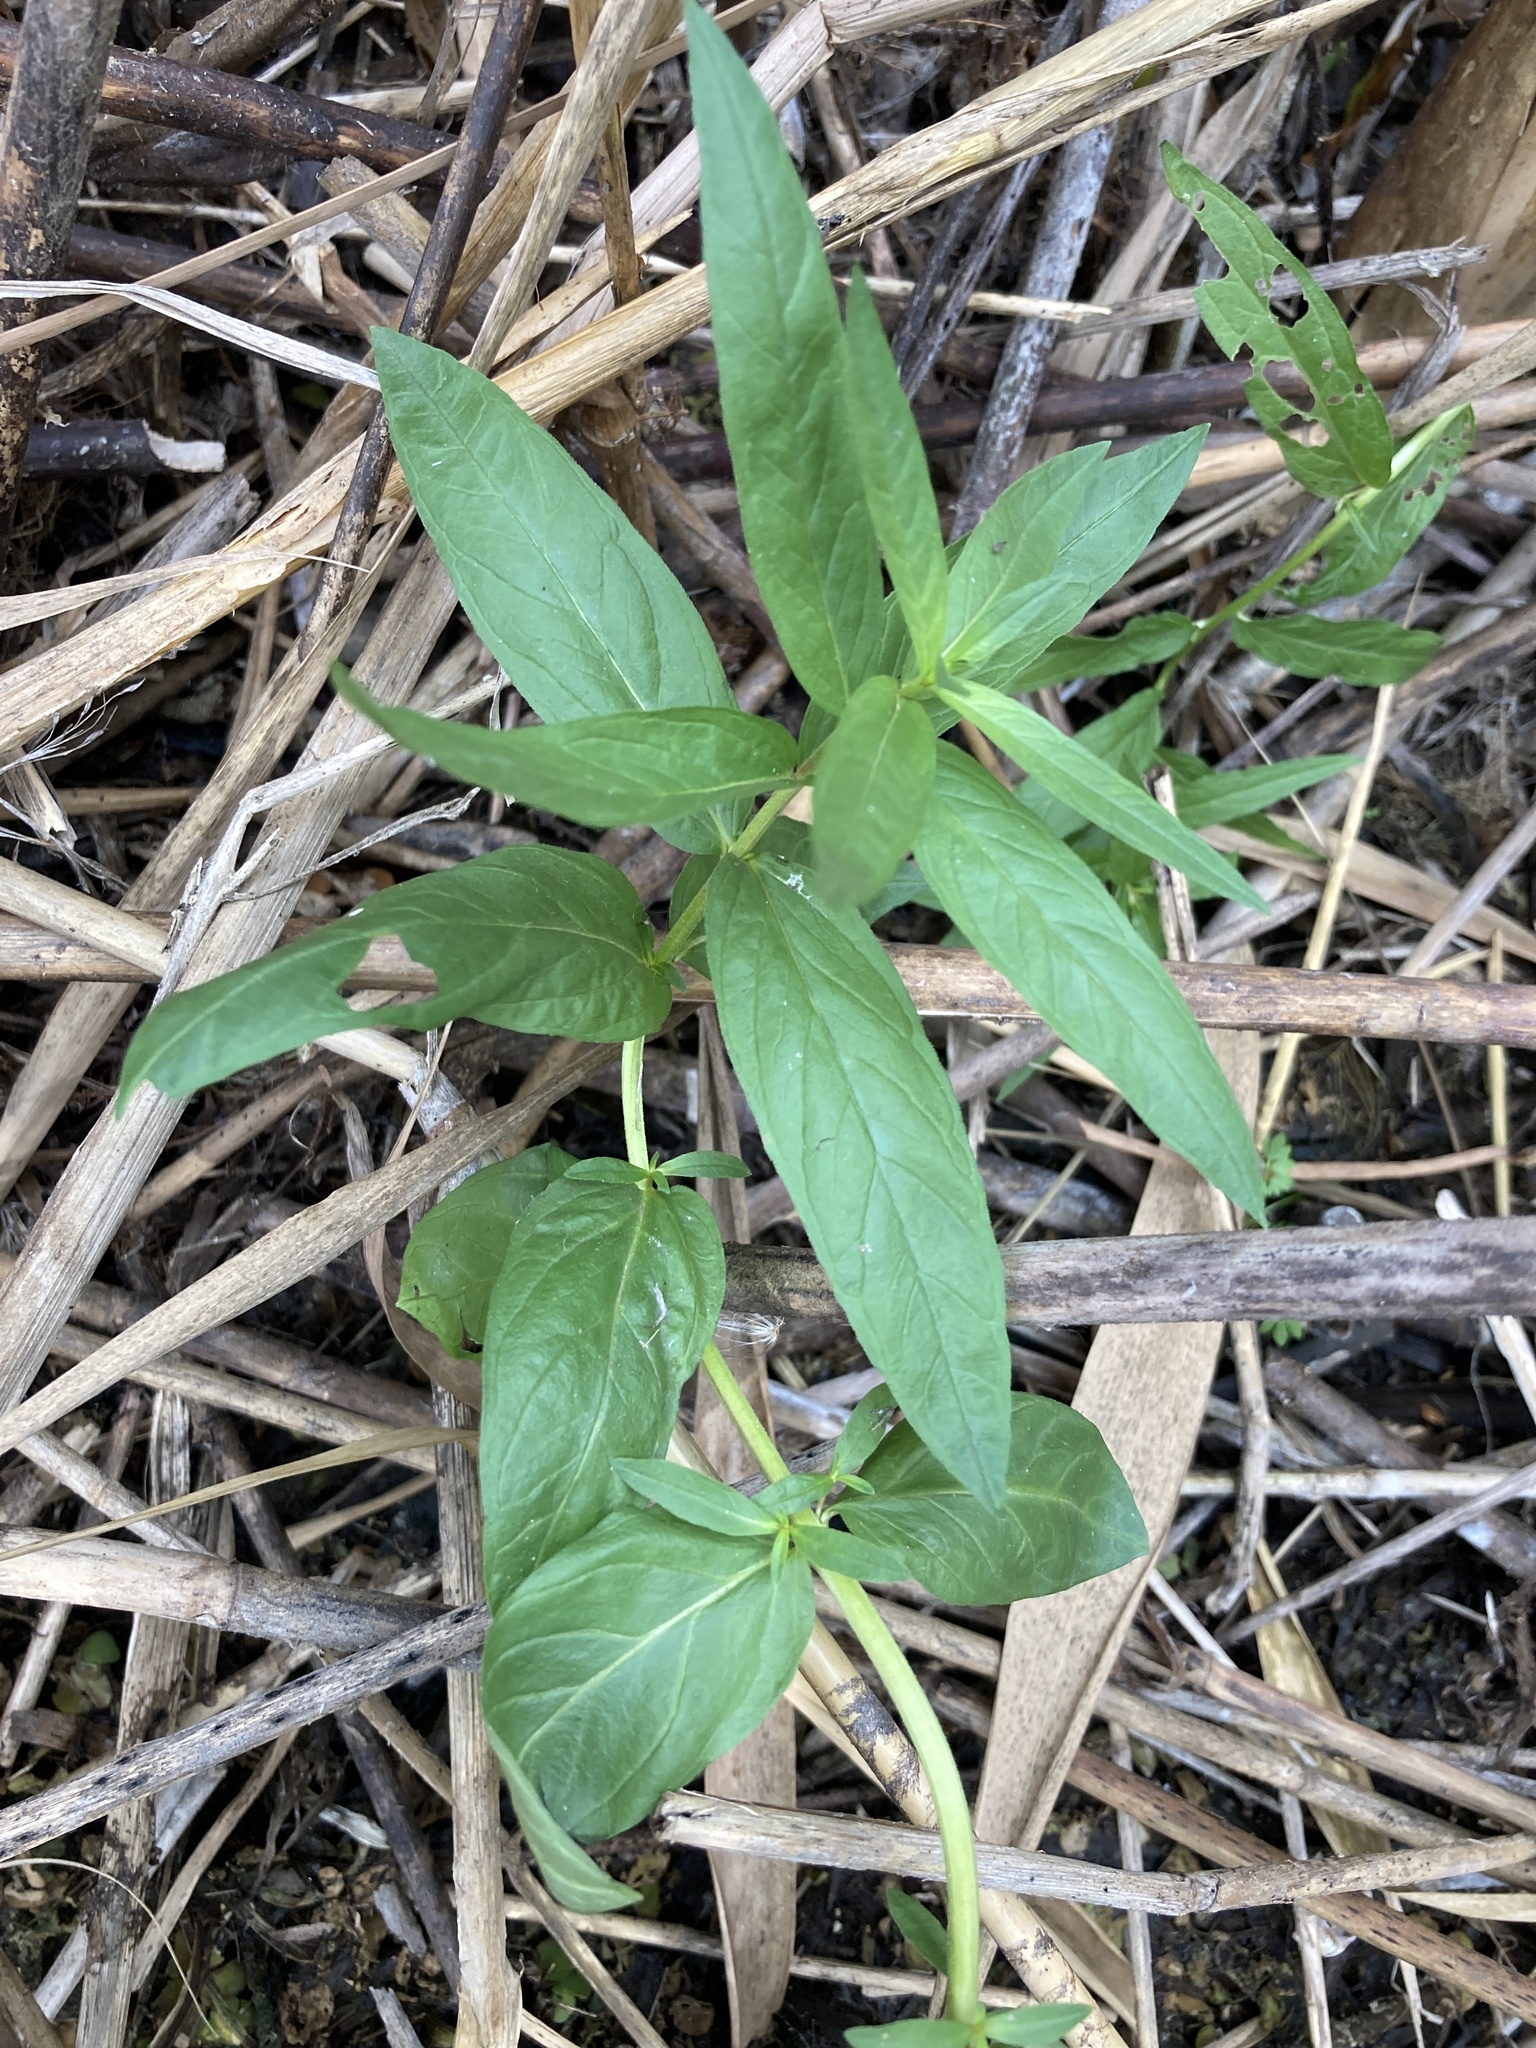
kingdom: Plantae
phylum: Tracheophyta
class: Magnoliopsida
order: Ericales
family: Primulaceae
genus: Lysimachia
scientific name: Lysimachia thyrsiflora
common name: Tufted loosestrife
